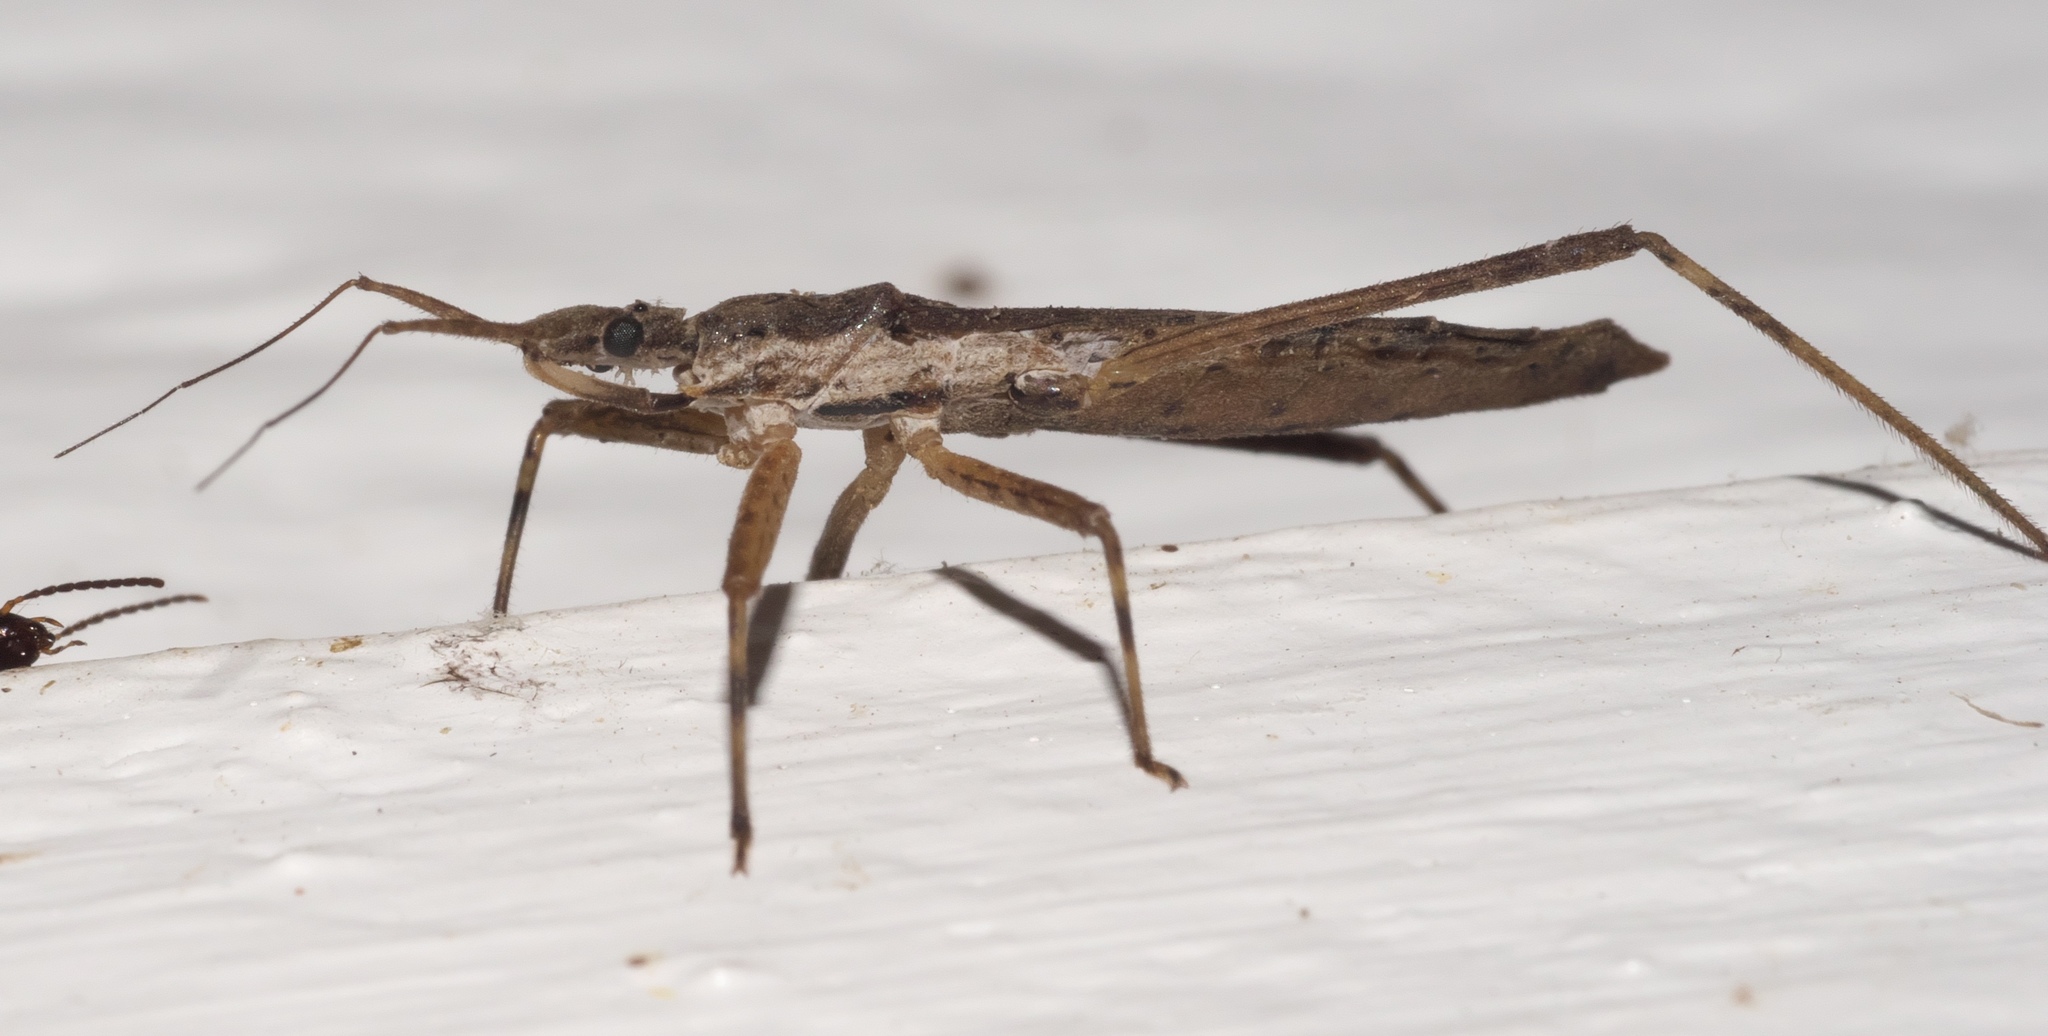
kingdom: Animalia
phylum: Arthropoda
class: Insecta
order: Hemiptera
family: Reduviidae
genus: Pygolampis
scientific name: Pygolampis pectoralis
